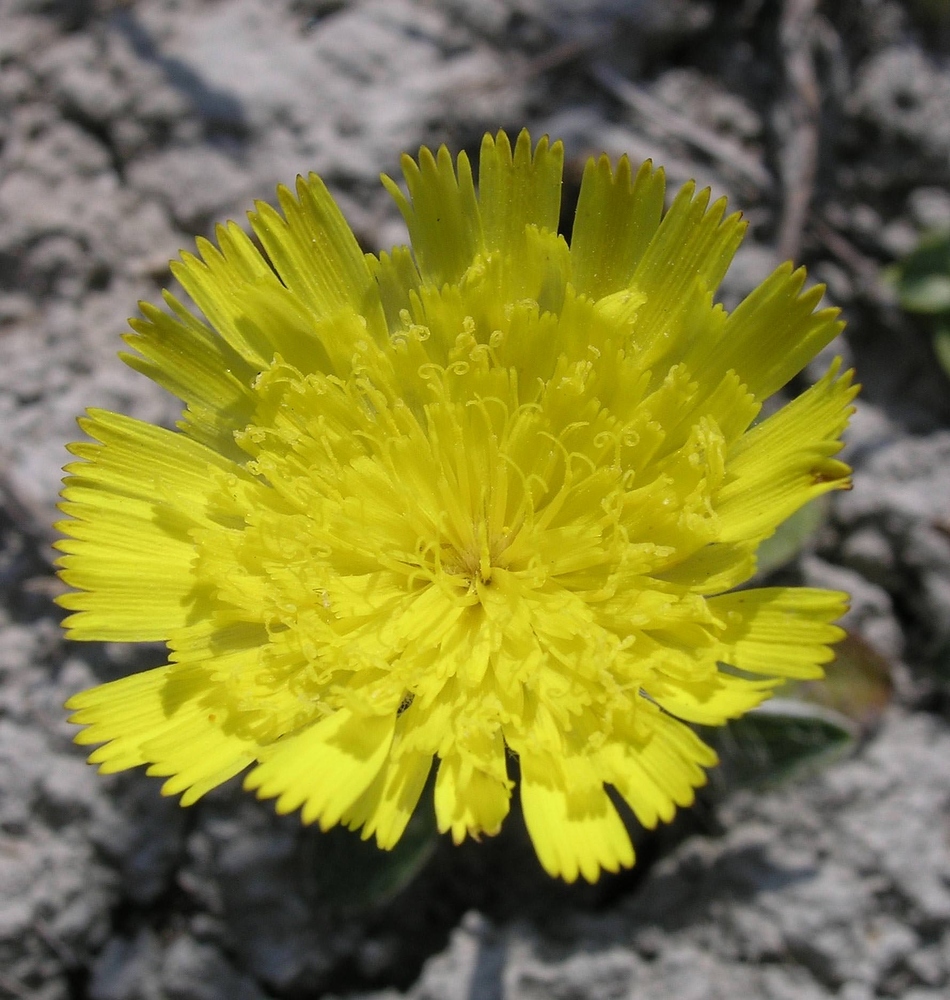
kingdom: Plantae
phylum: Tracheophyta
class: Magnoliopsida
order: Asterales
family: Asteraceae
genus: Pilosella
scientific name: Pilosella officinarum
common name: Mouse-ear hawkweed
